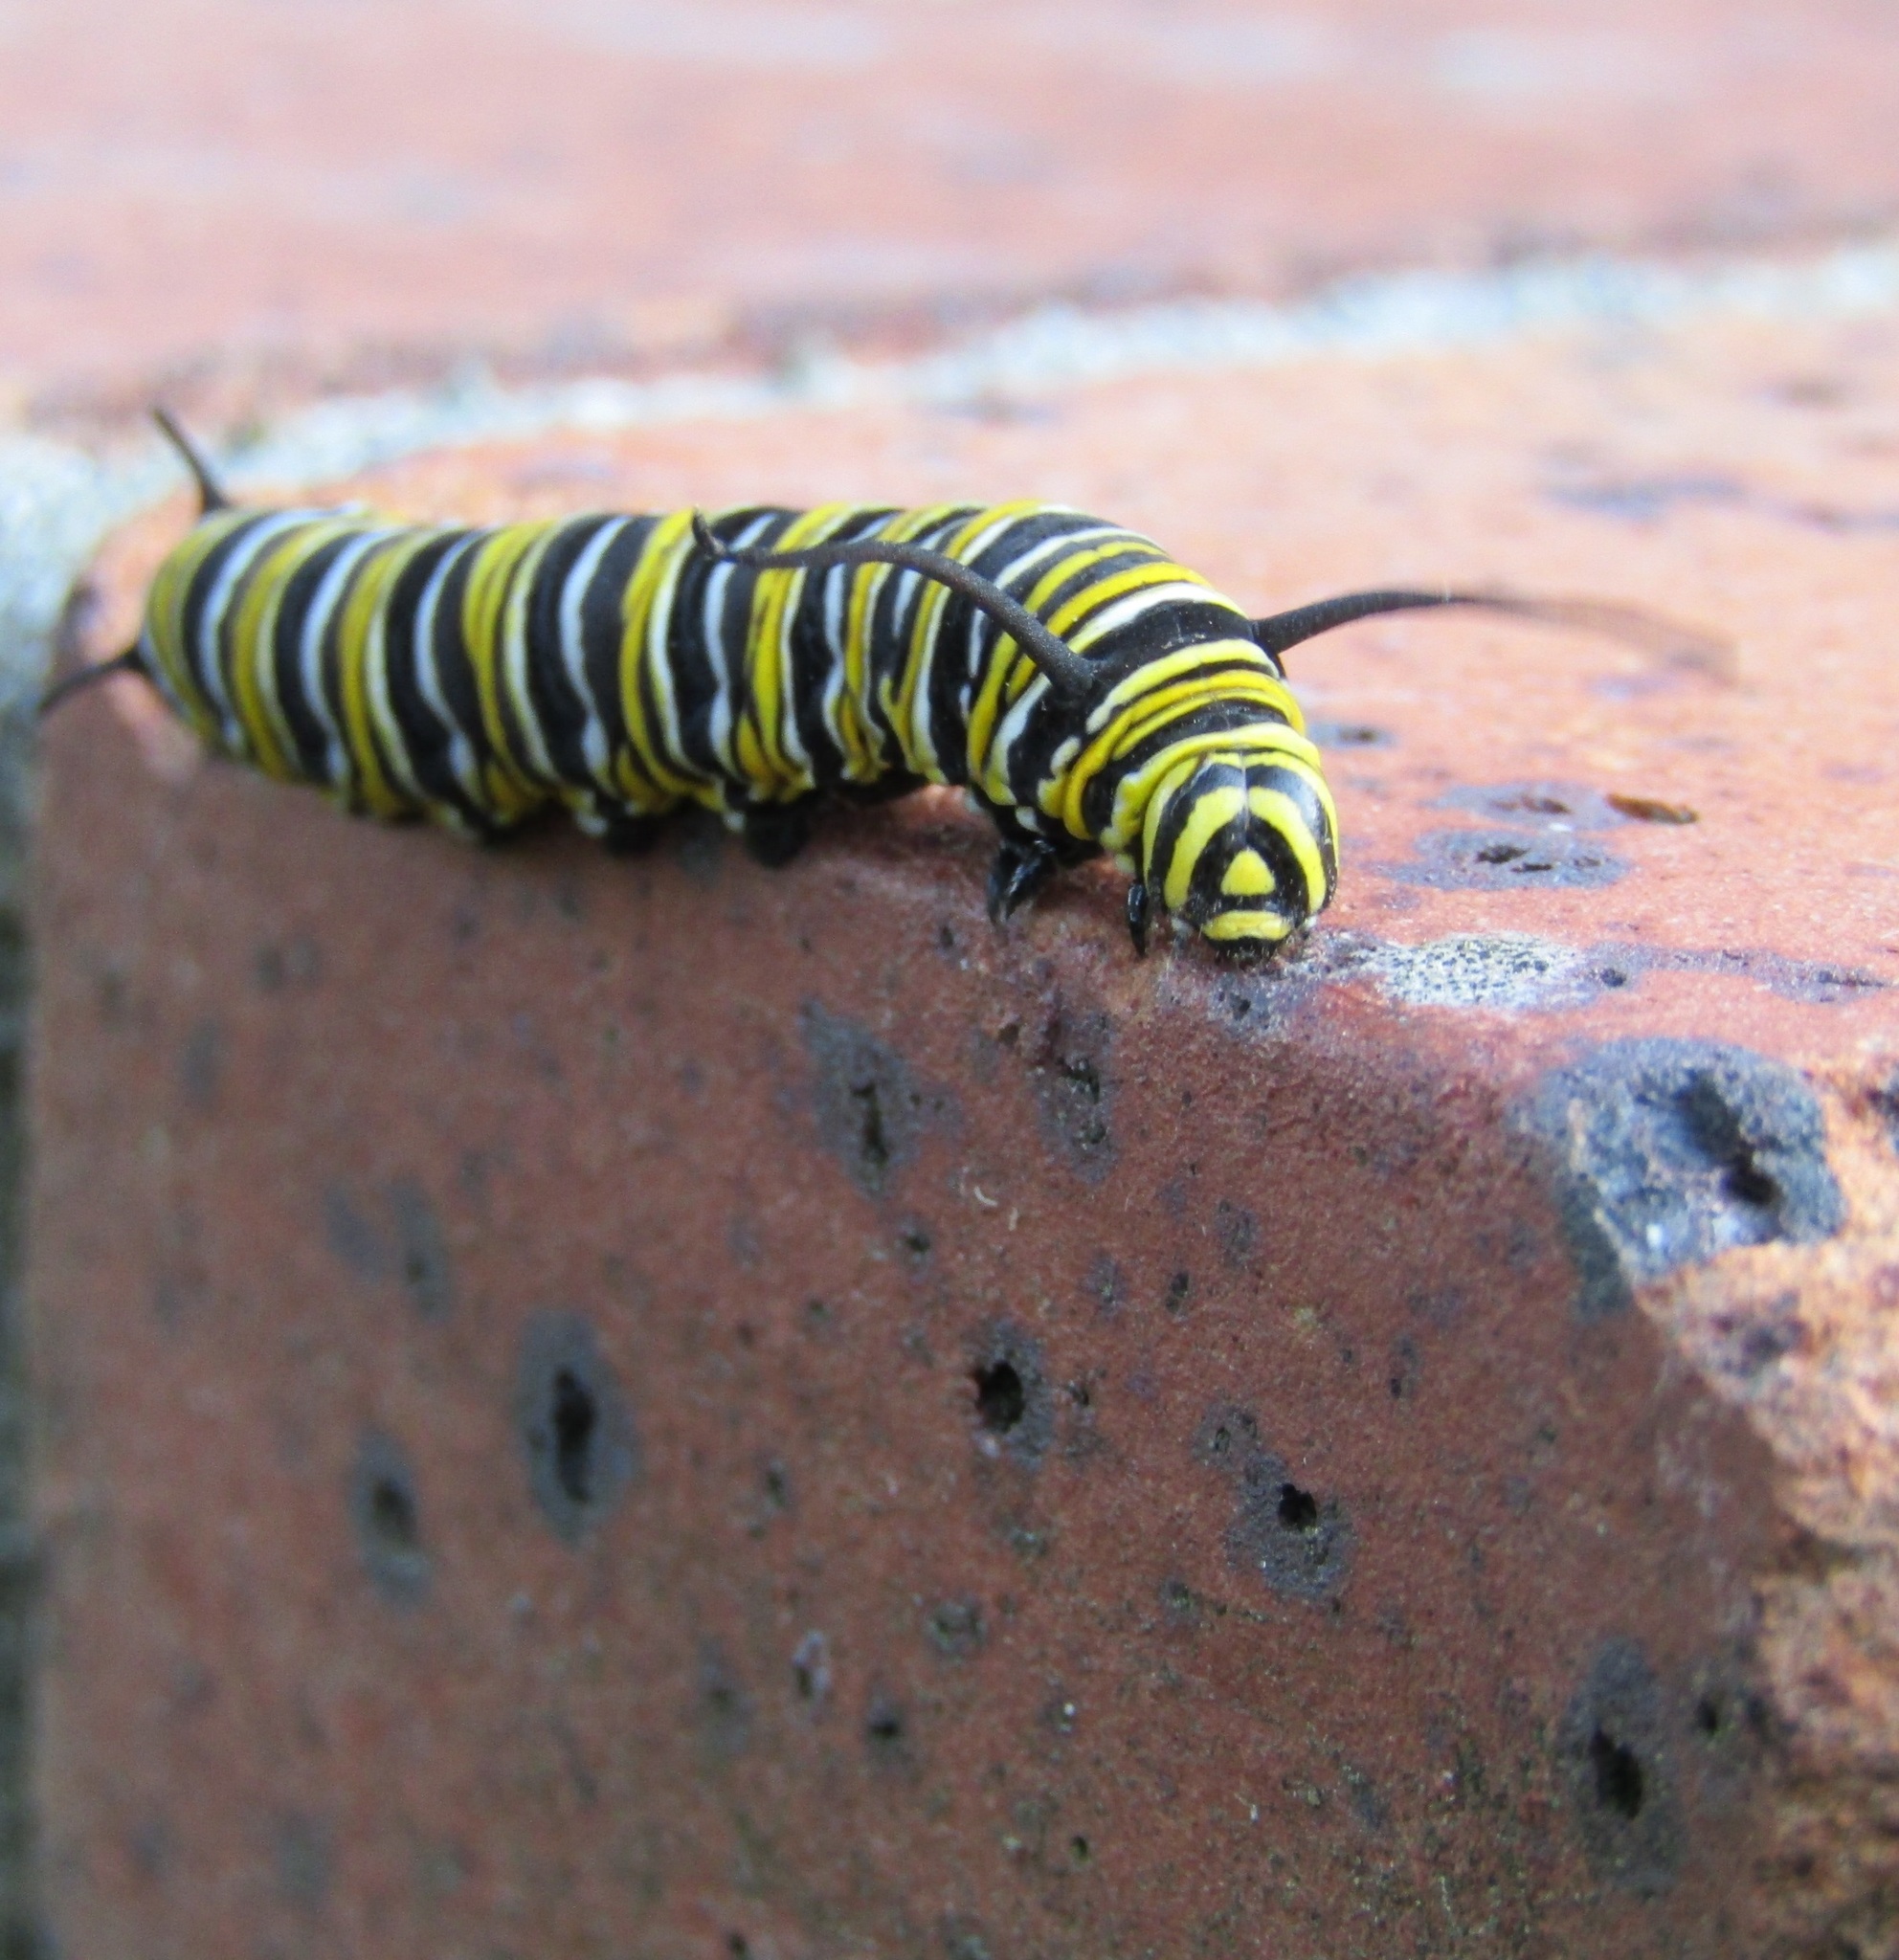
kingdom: Animalia
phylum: Arthropoda
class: Insecta
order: Lepidoptera
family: Nymphalidae
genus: Danaus
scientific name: Danaus plexippus
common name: Monarch
